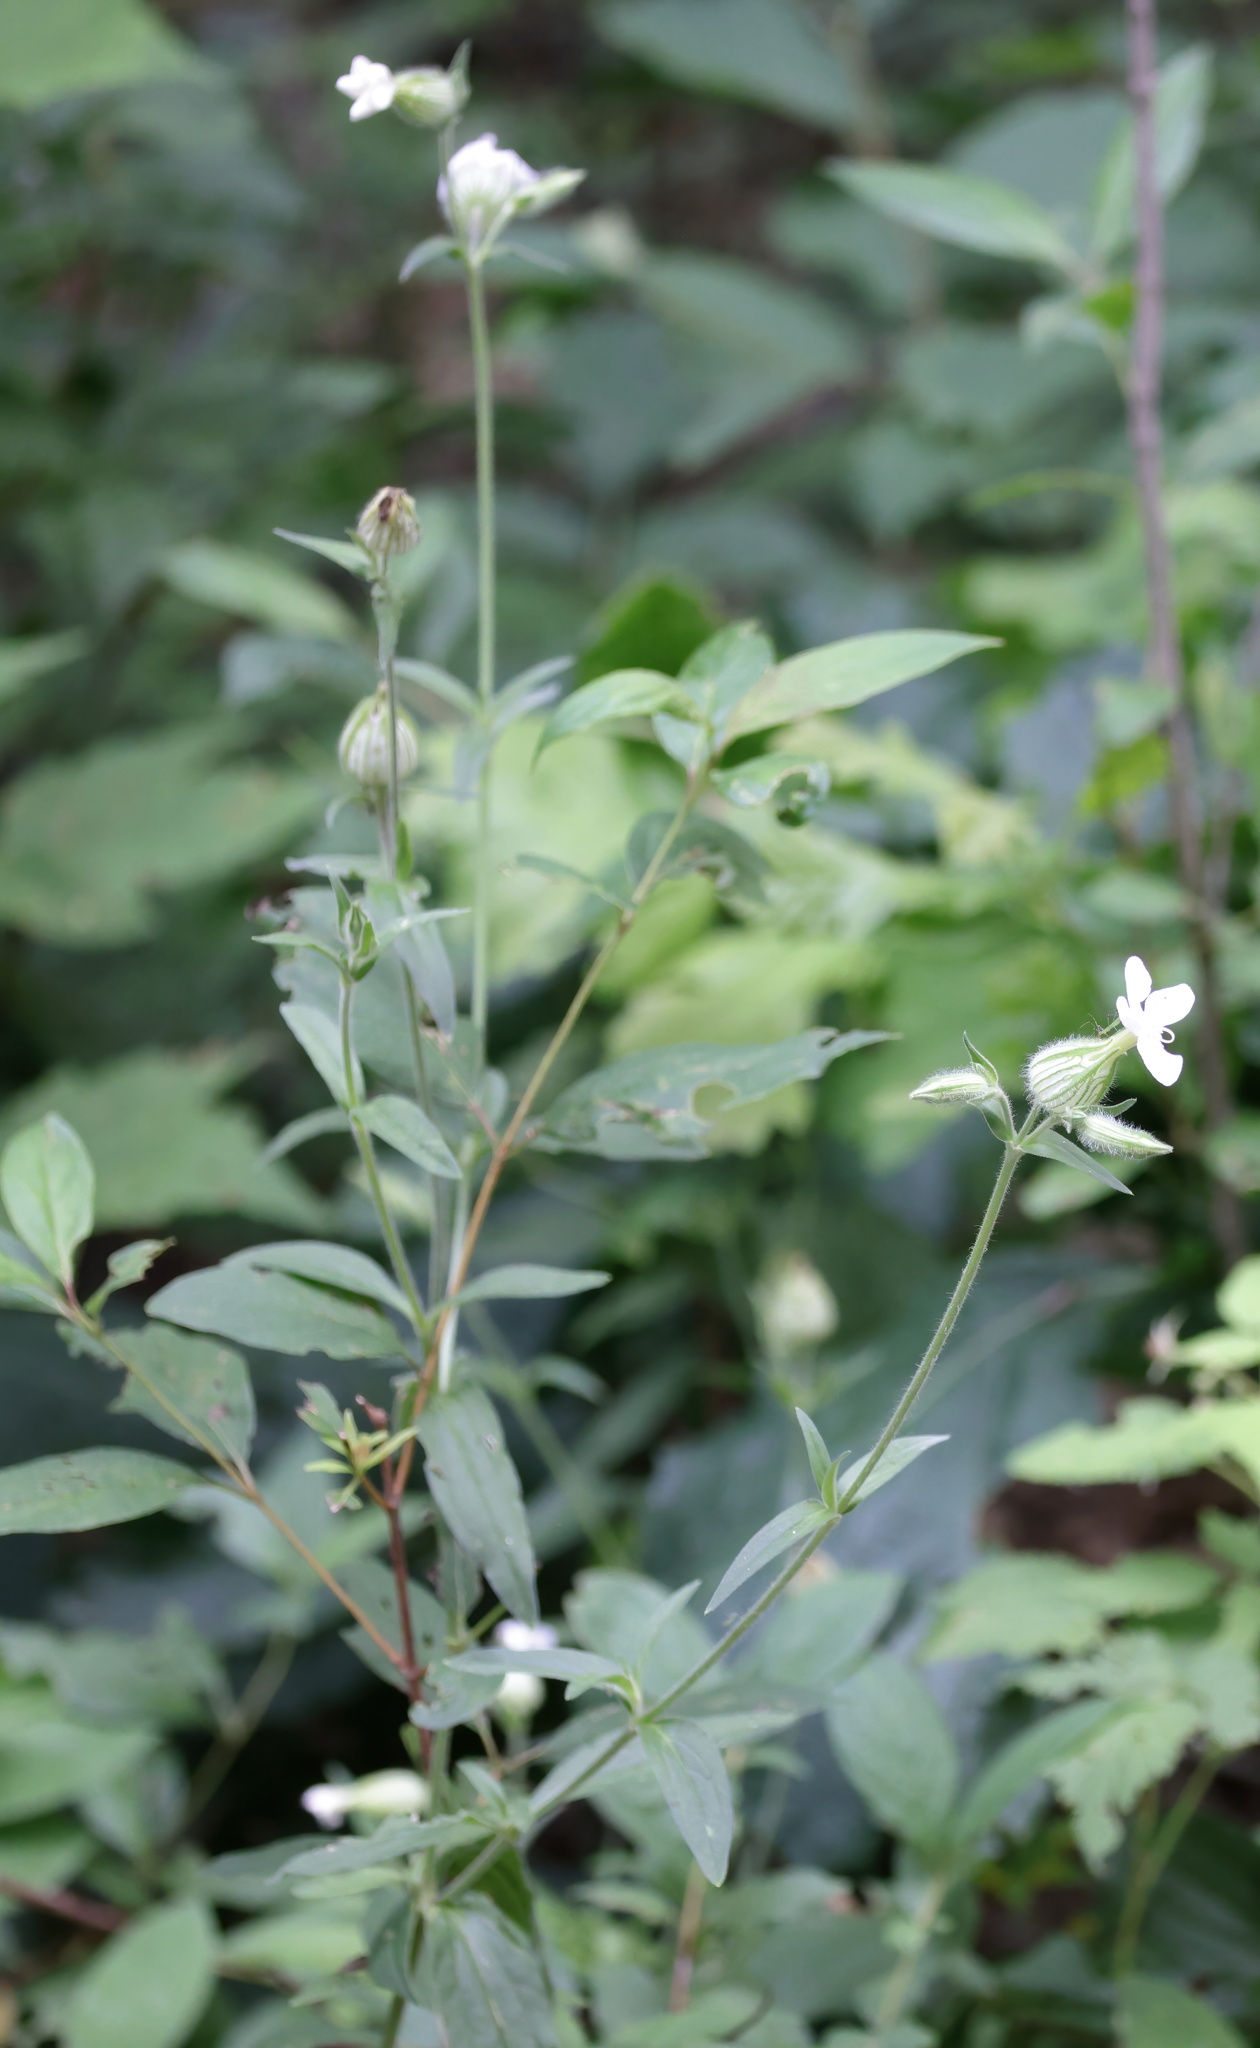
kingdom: Plantae
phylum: Tracheophyta
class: Magnoliopsida
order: Caryophyllales
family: Caryophyllaceae
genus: Silene
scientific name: Silene latifolia
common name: White campion
